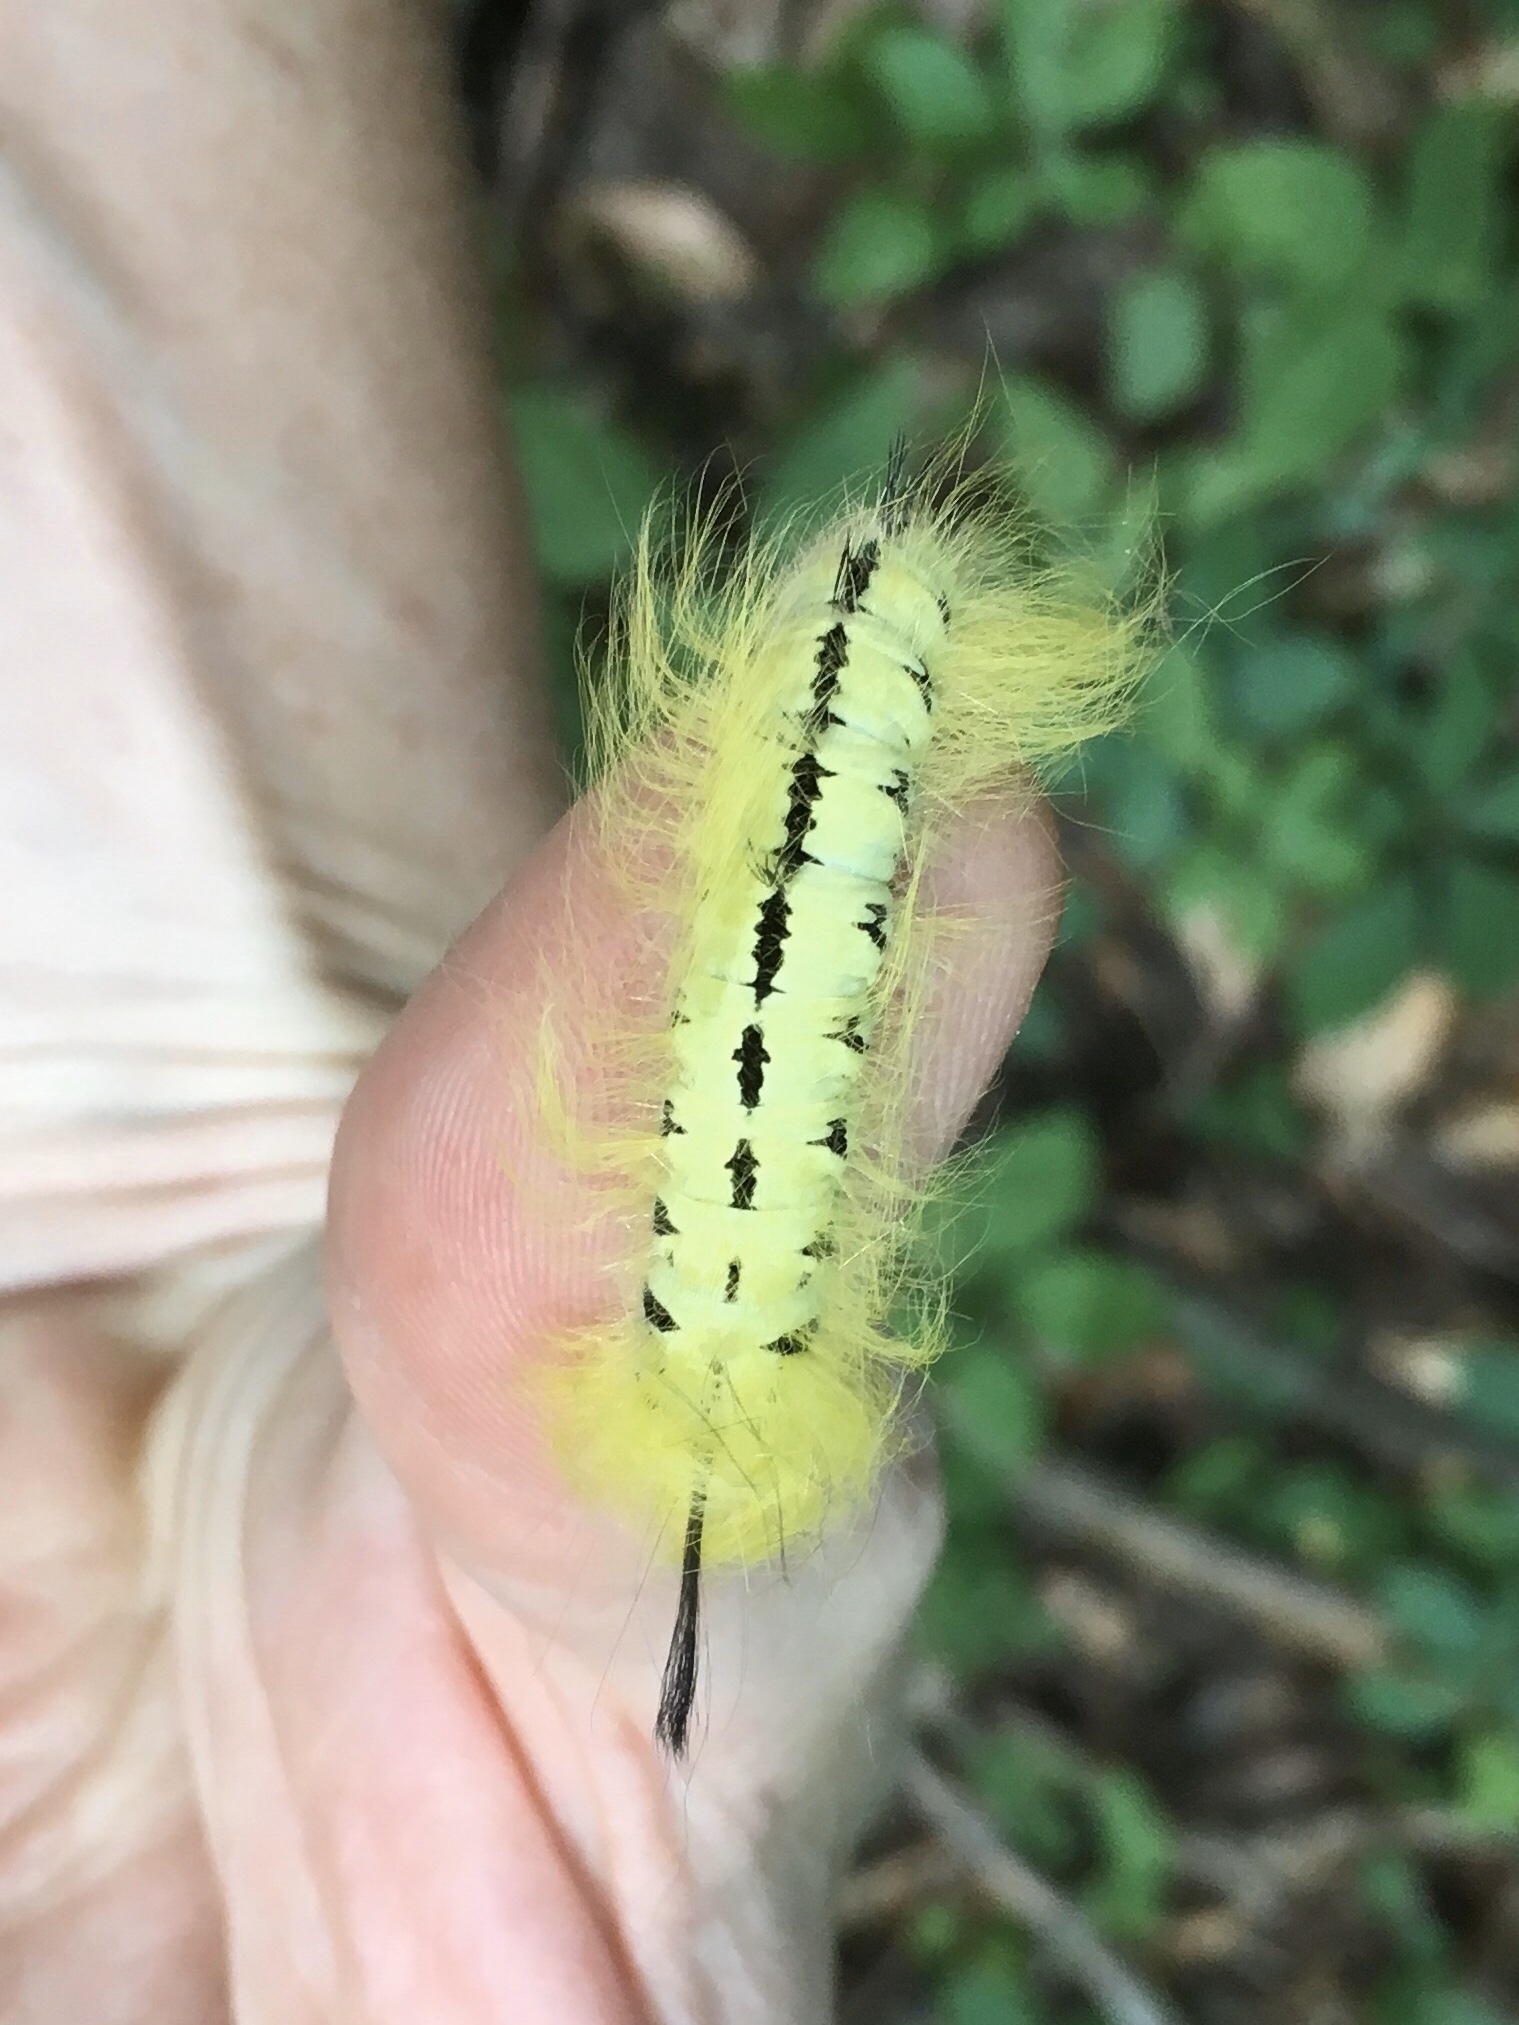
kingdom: Animalia
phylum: Arthropoda
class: Insecta
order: Lepidoptera
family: Apatelodidae
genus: Hygrochroa
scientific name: Hygrochroa Apatelodes torrefacta
